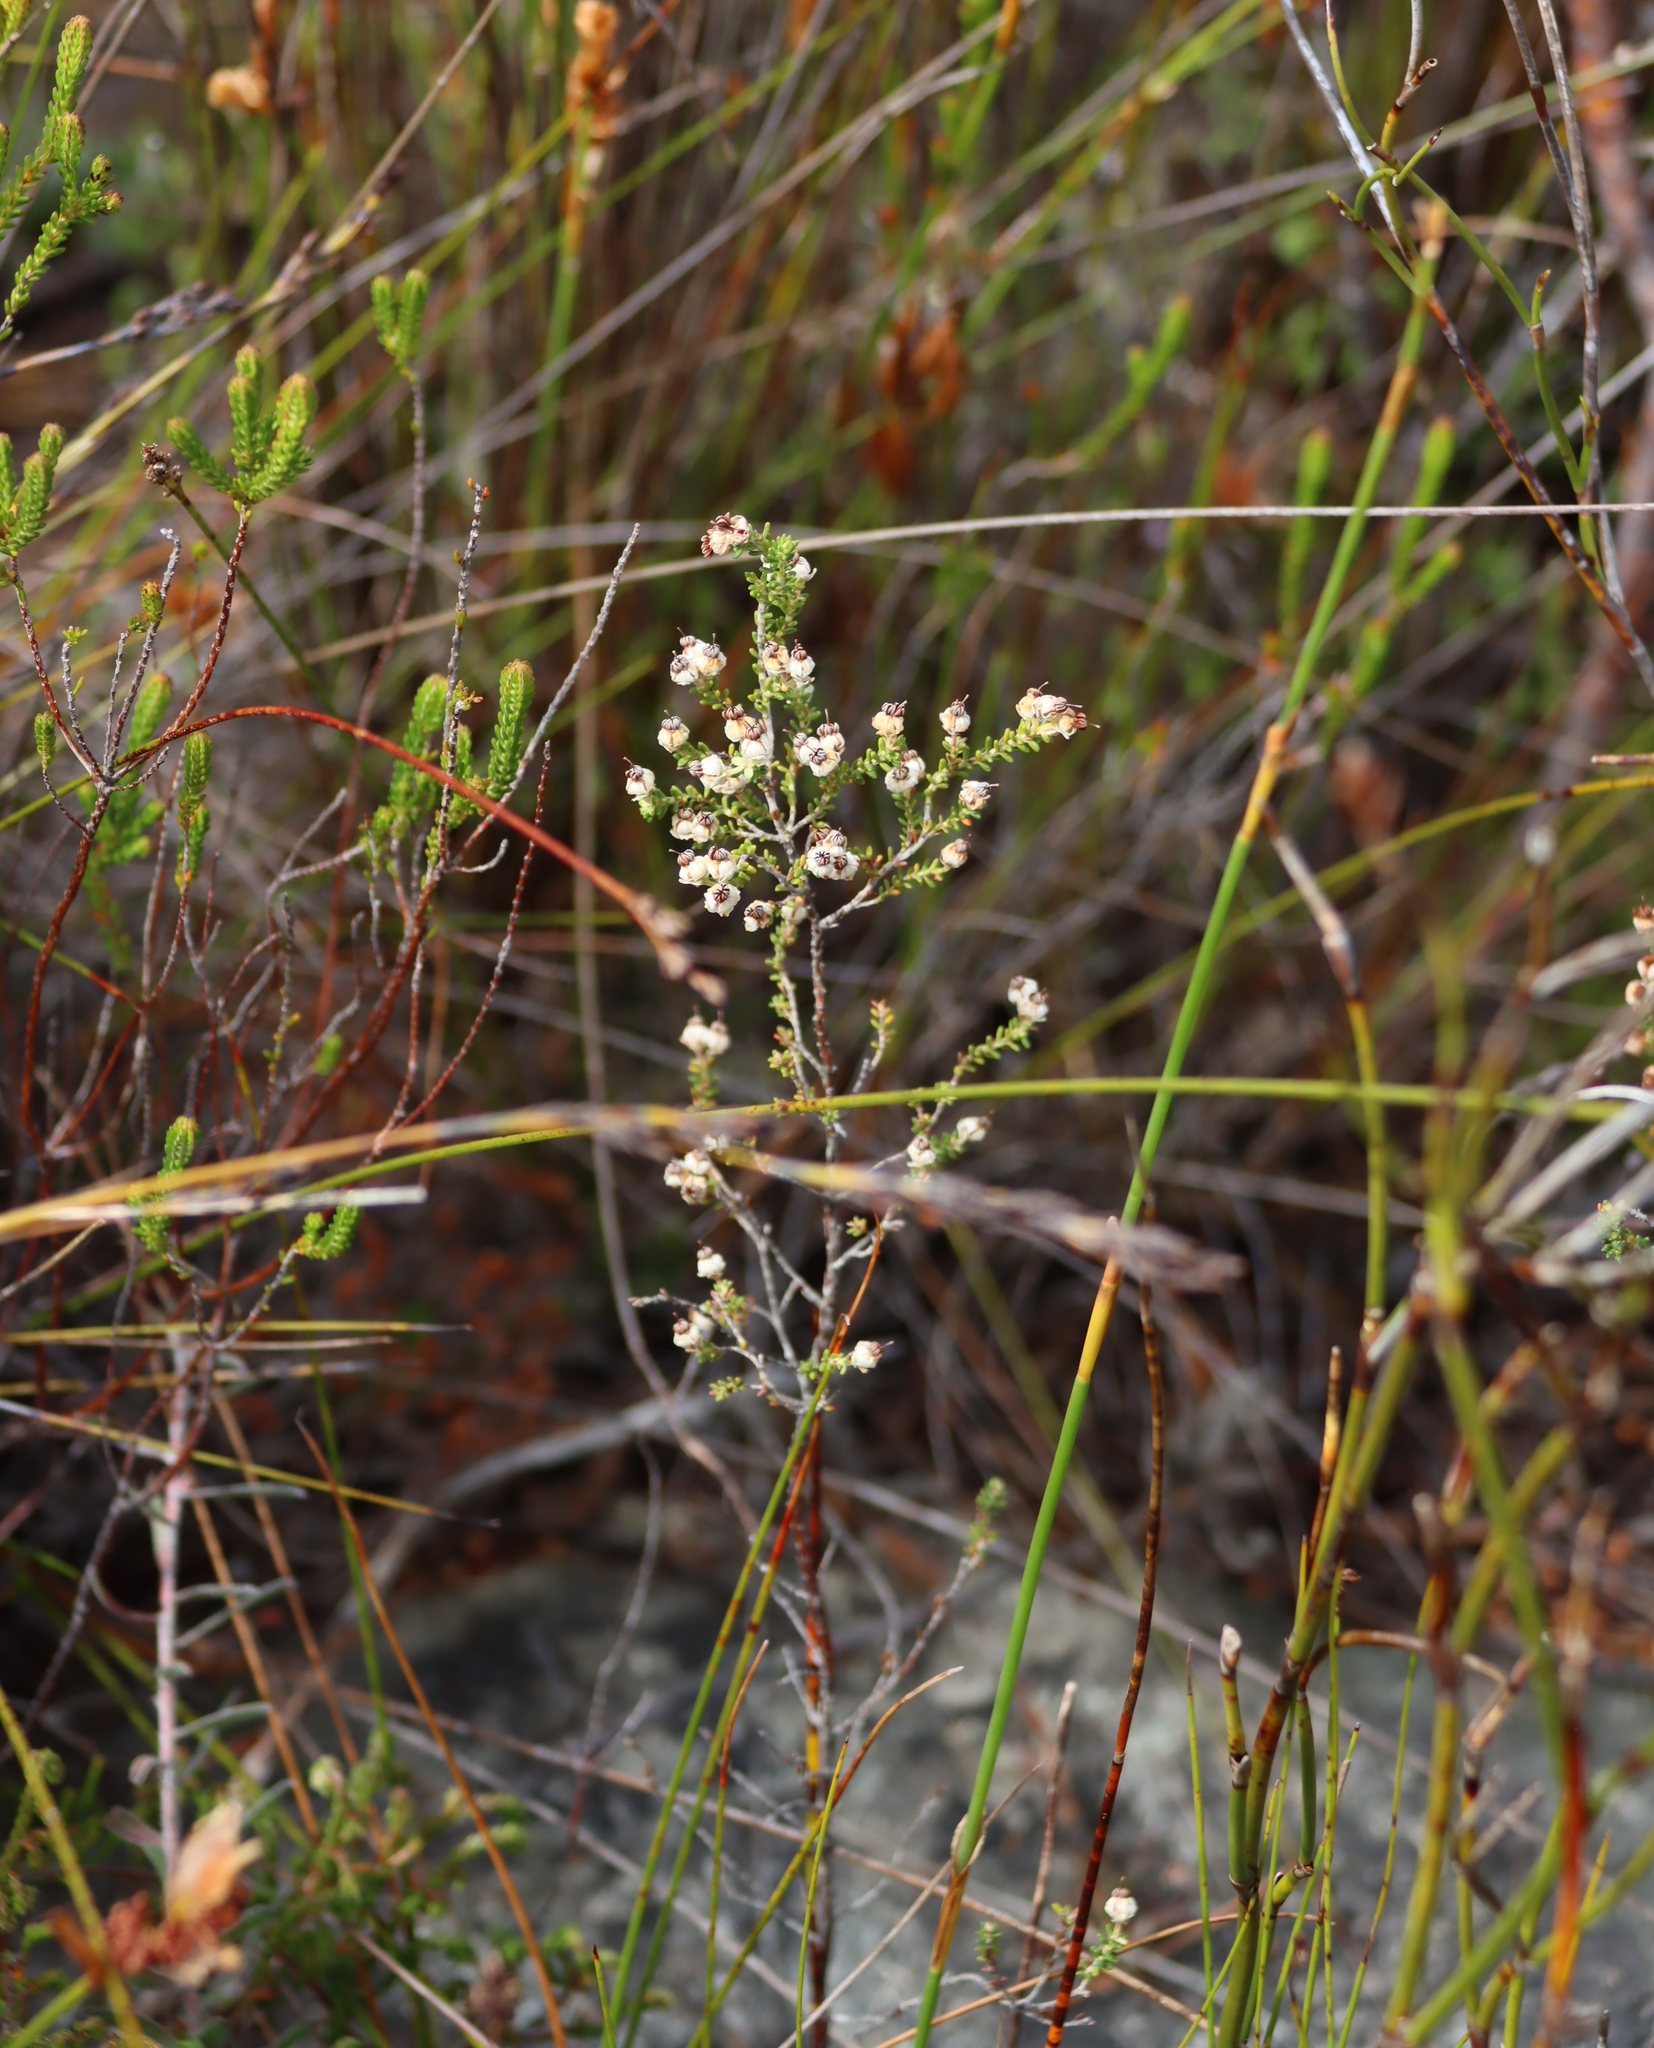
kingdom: Plantae
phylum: Tracheophyta
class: Magnoliopsida
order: Ericales
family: Ericaceae
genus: Erica
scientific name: Erica suffulta
